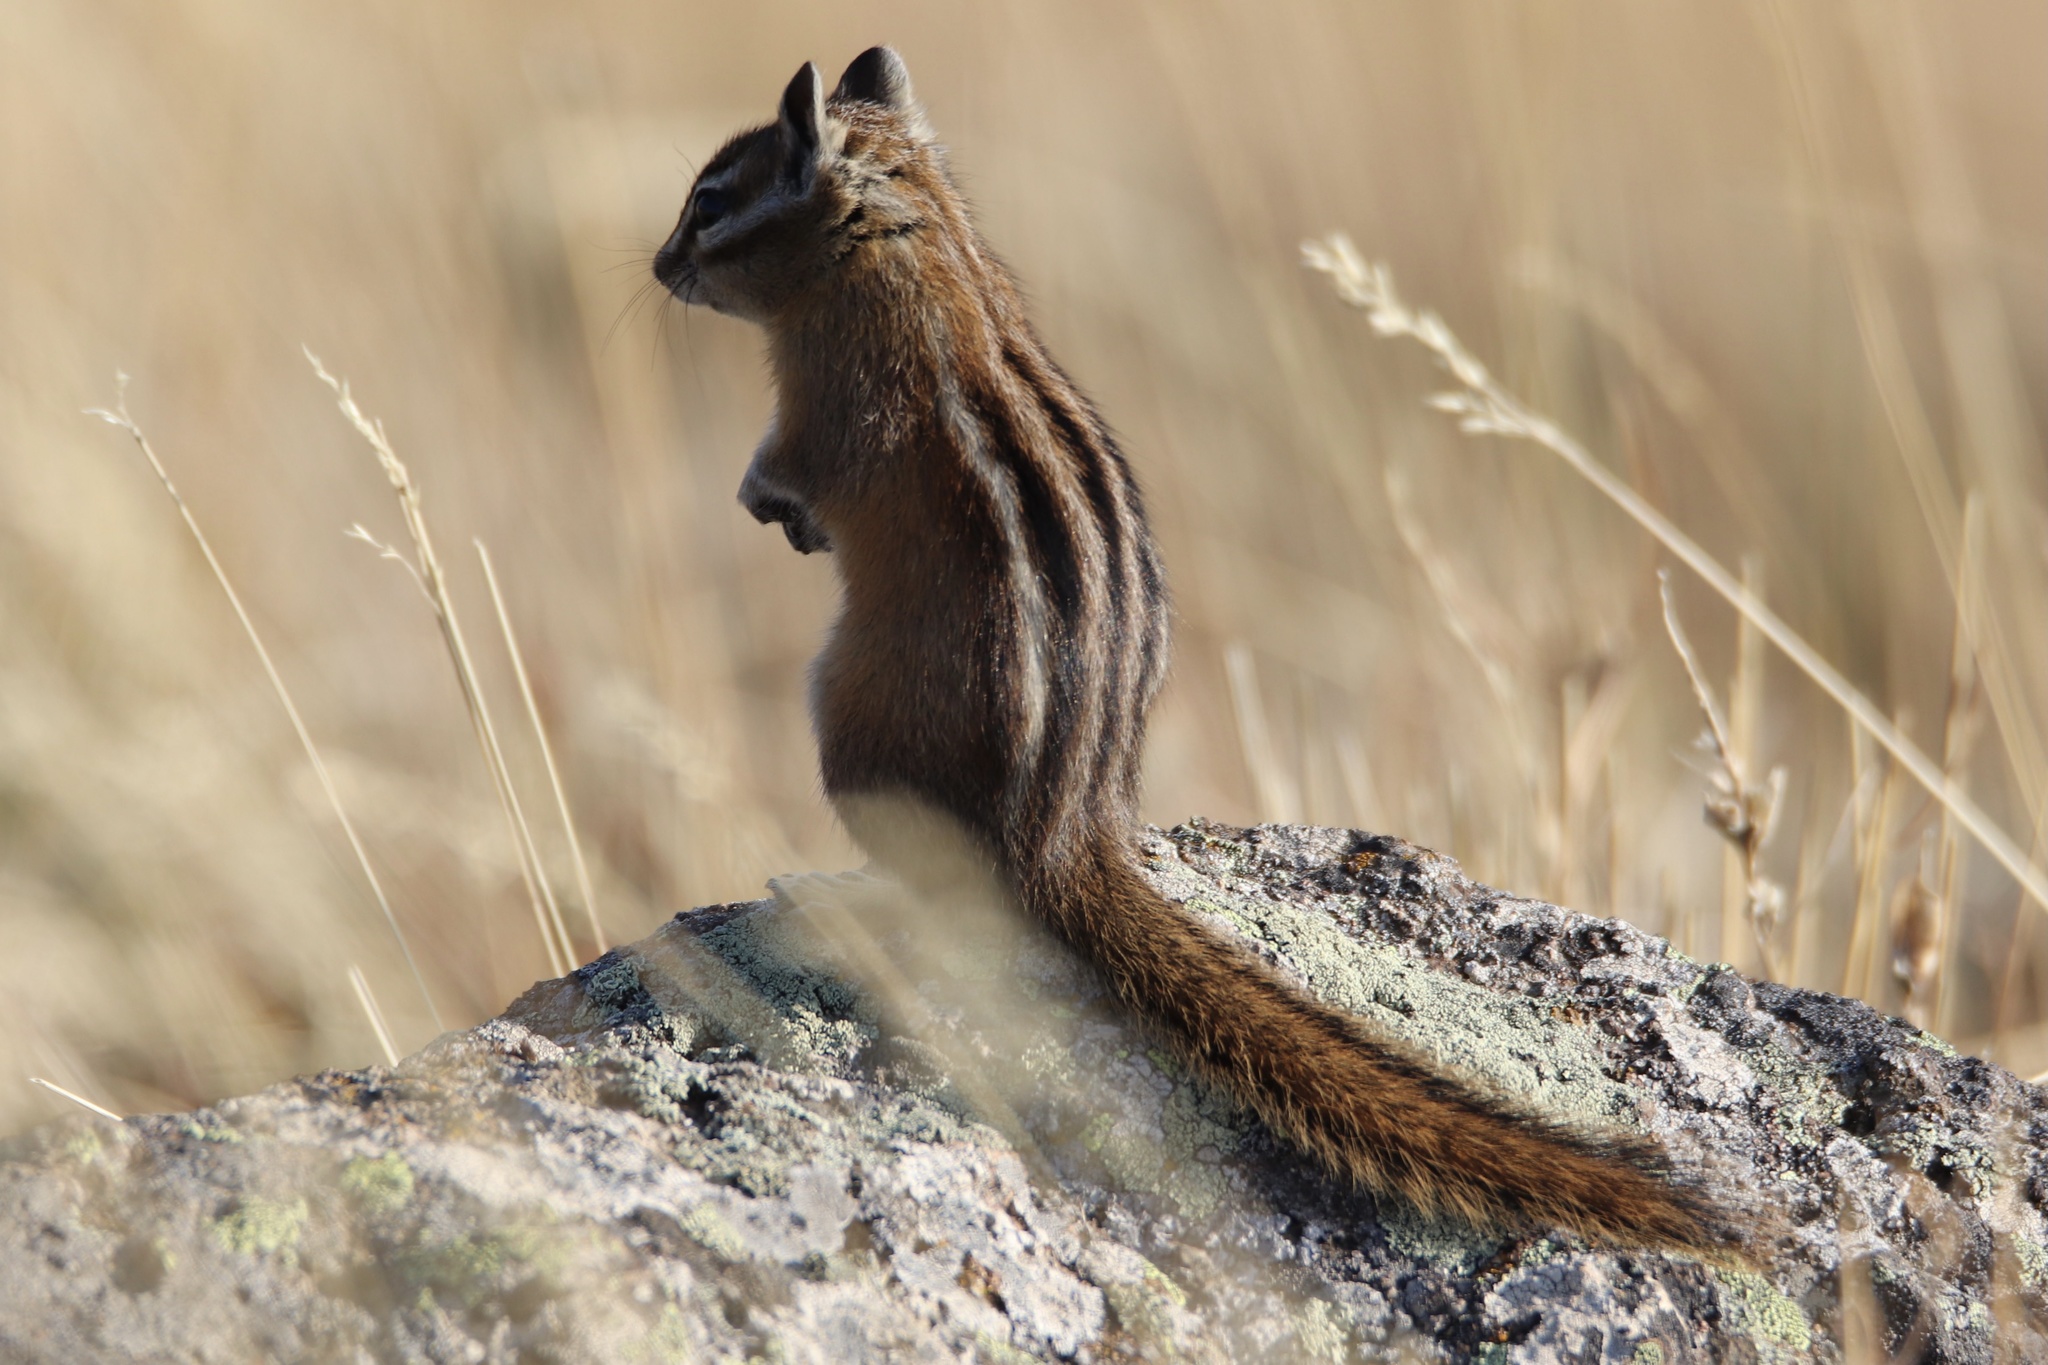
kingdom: Animalia
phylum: Chordata
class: Mammalia
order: Rodentia
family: Sciuridae
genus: Tamias
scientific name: Tamias amoenus
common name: Yellow-pine chipmunk
